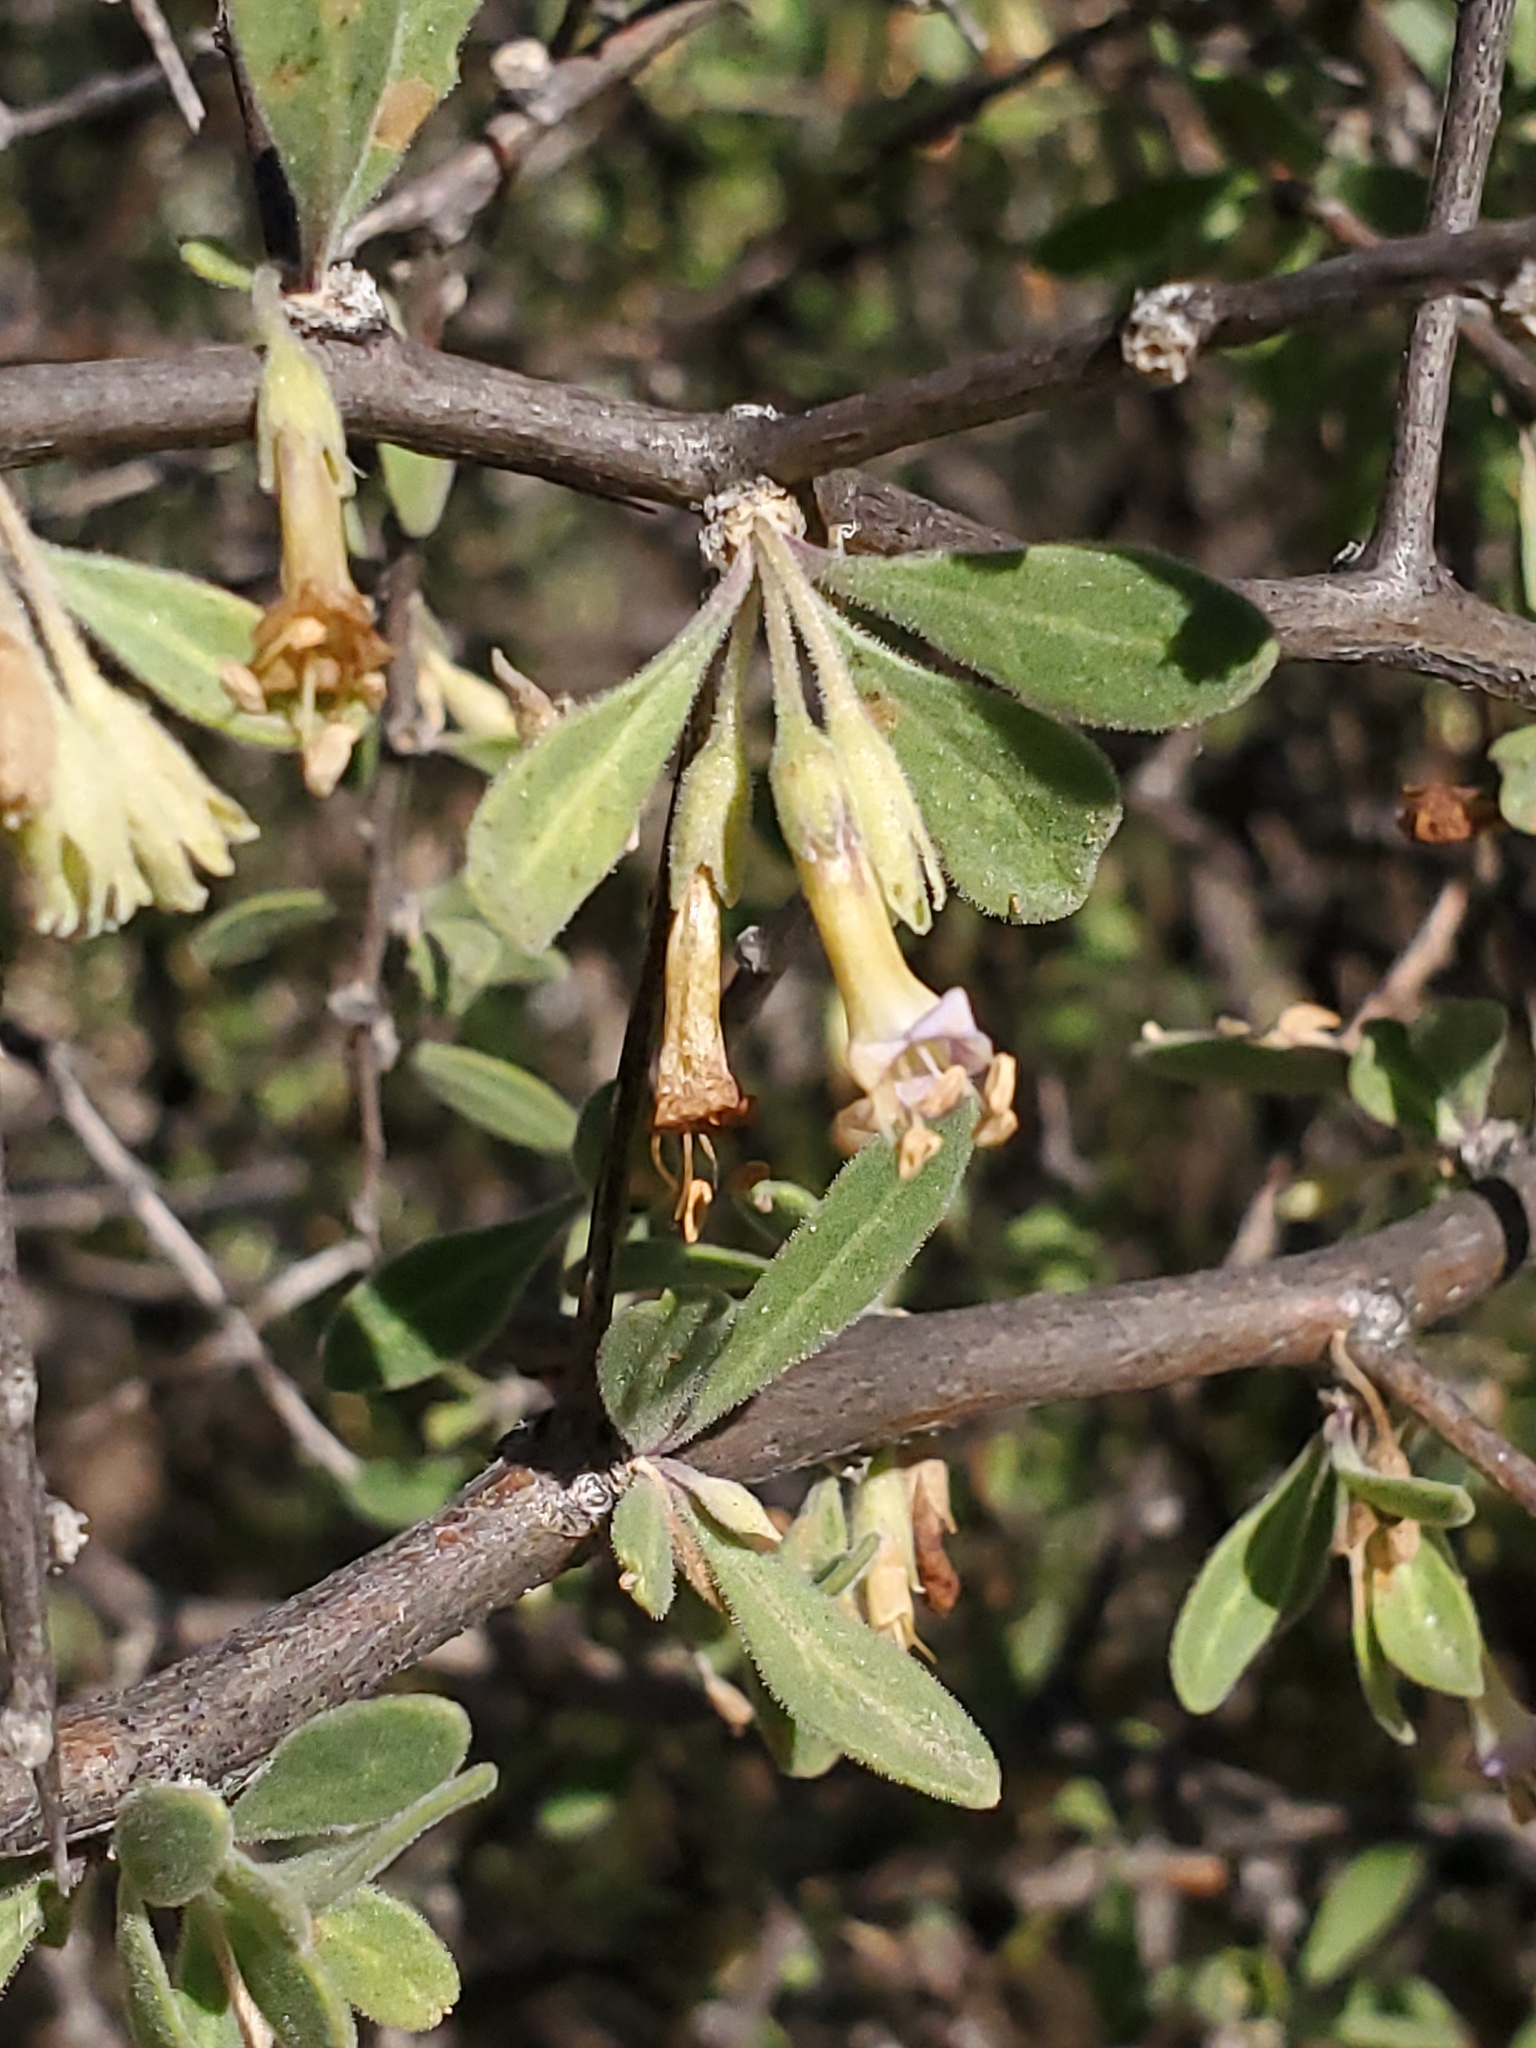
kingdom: Plantae
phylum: Tracheophyta
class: Magnoliopsida
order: Solanales
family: Solanaceae
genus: Lycium
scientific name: Lycium exsertum
